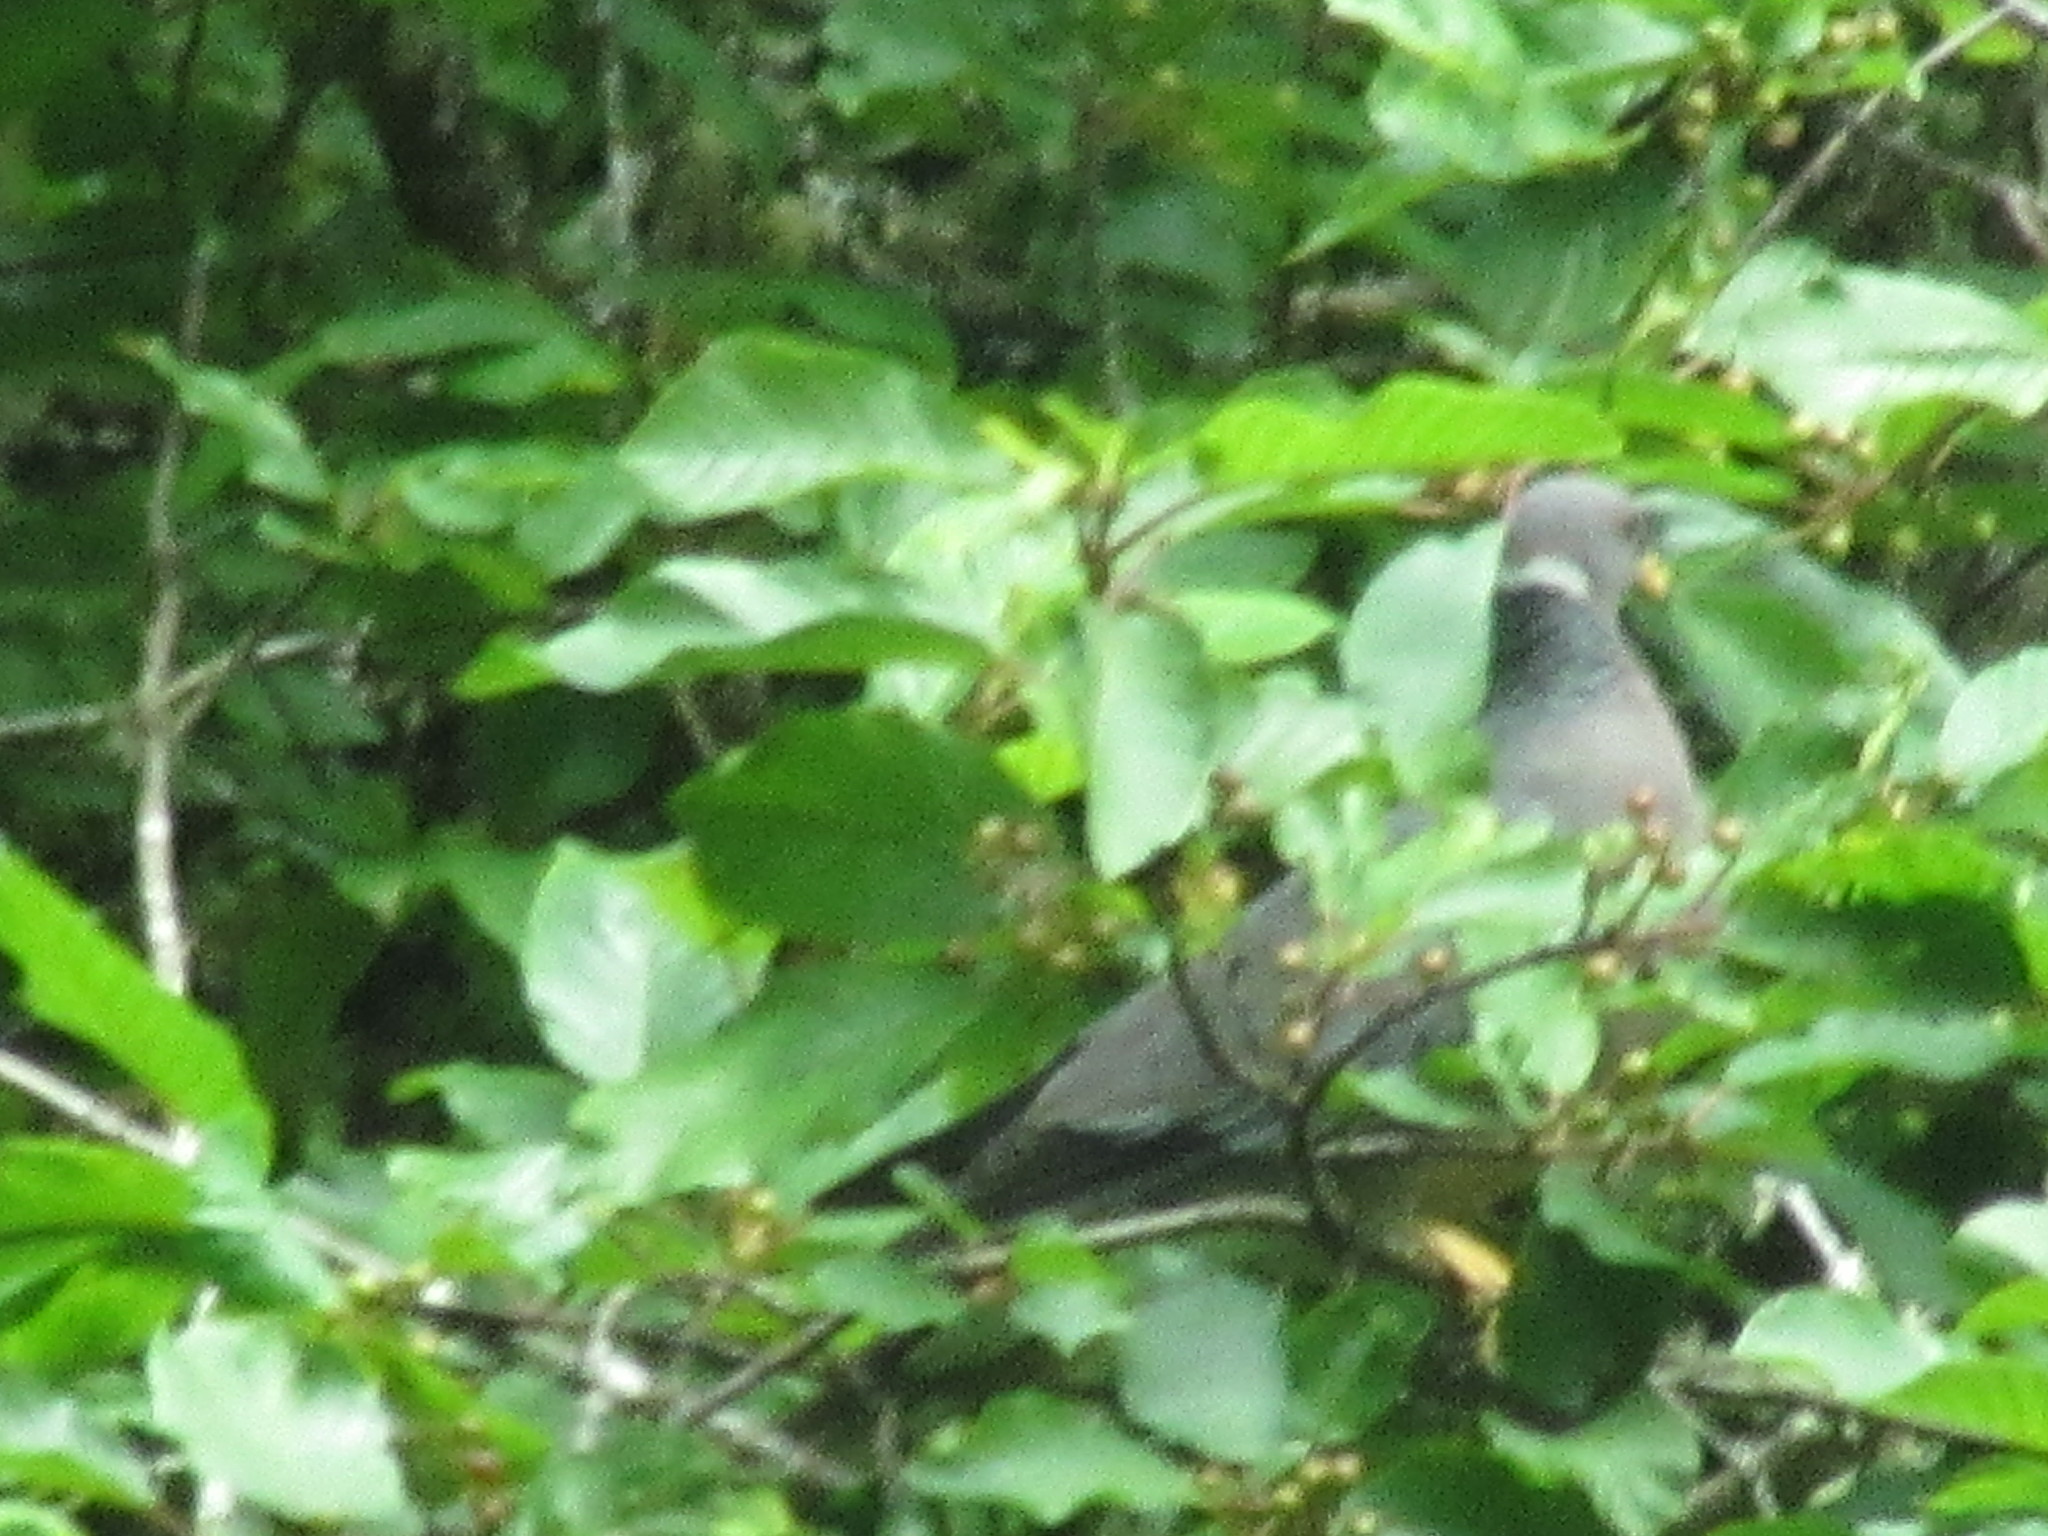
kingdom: Animalia
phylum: Chordata
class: Aves
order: Columbiformes
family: Columbidae
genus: Patagioenas
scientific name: Patagioenas fasciata
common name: Band-tailed pigeon
